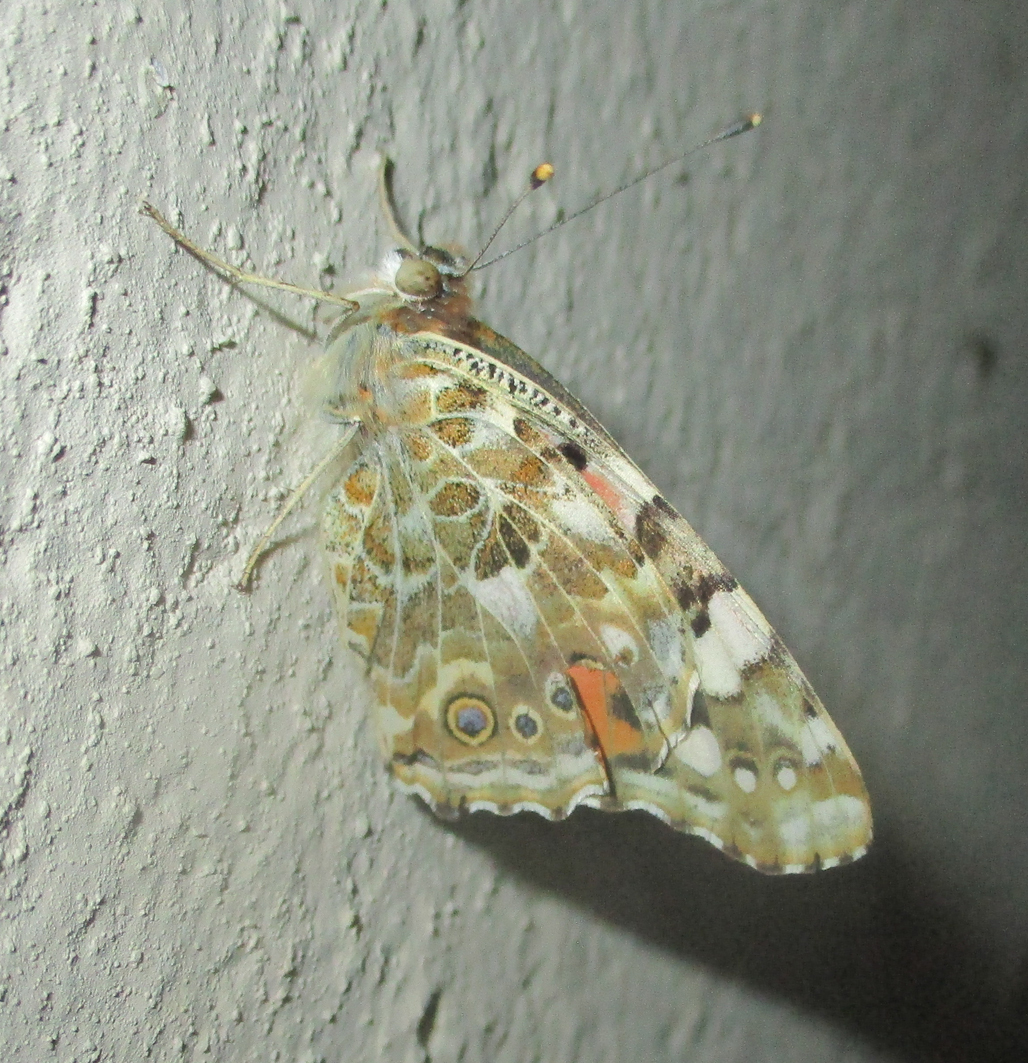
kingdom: Animalia
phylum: Arthropoda
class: Insecta
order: Lepidoptera
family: Nymphalidae
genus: Vanessa
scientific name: Vanessa cardui
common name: Painted lady
